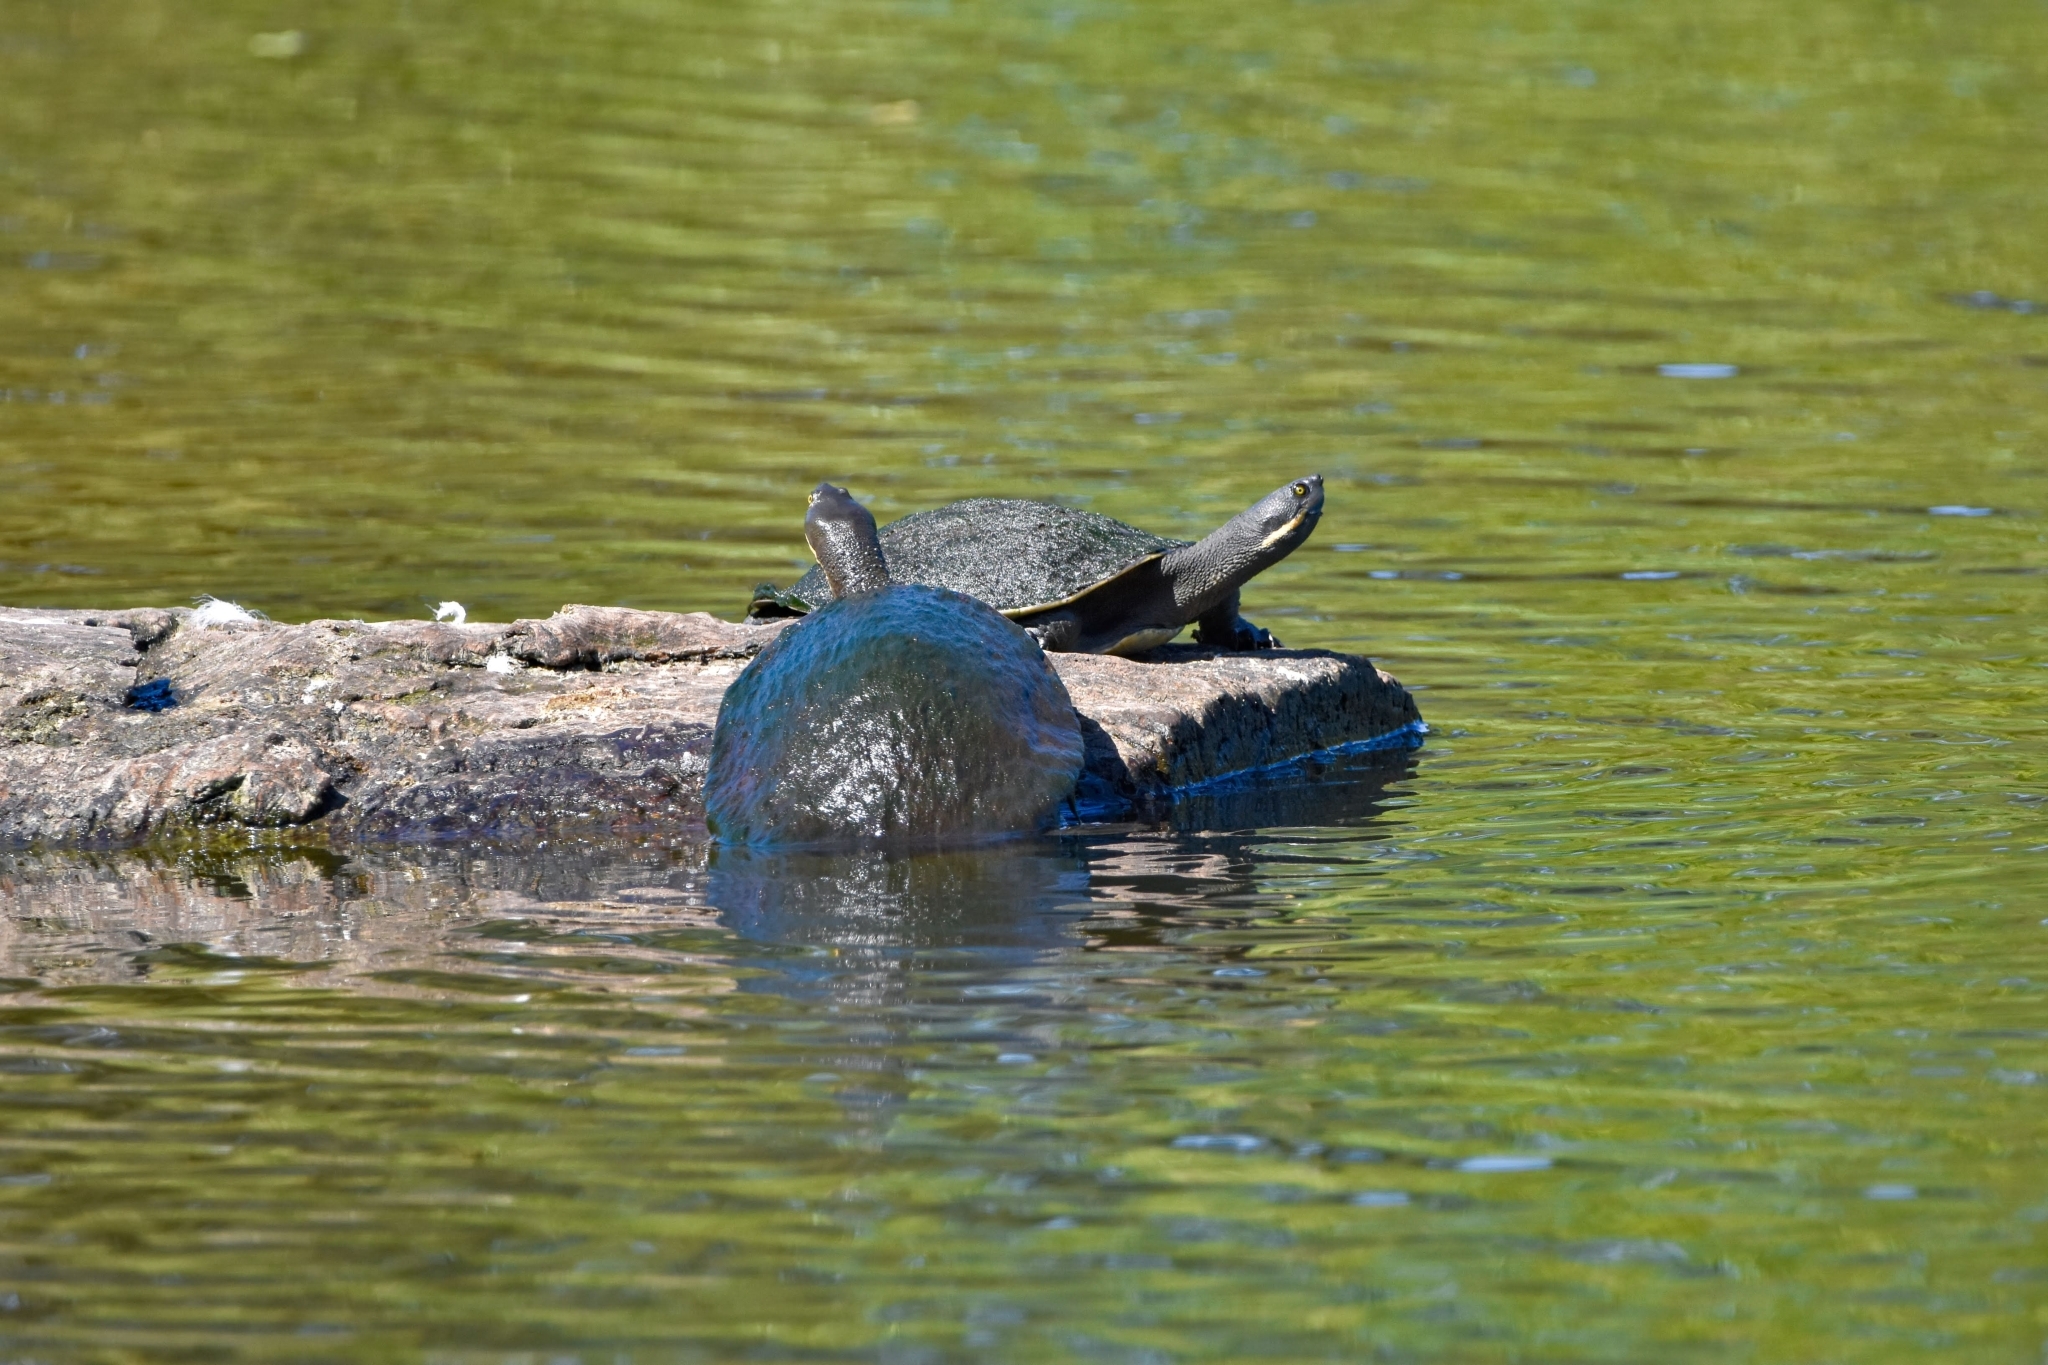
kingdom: Animalia
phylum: Chordata
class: Testudines
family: Chelidae
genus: Emydura
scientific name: Emydura macquarii
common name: Murray river turtle
